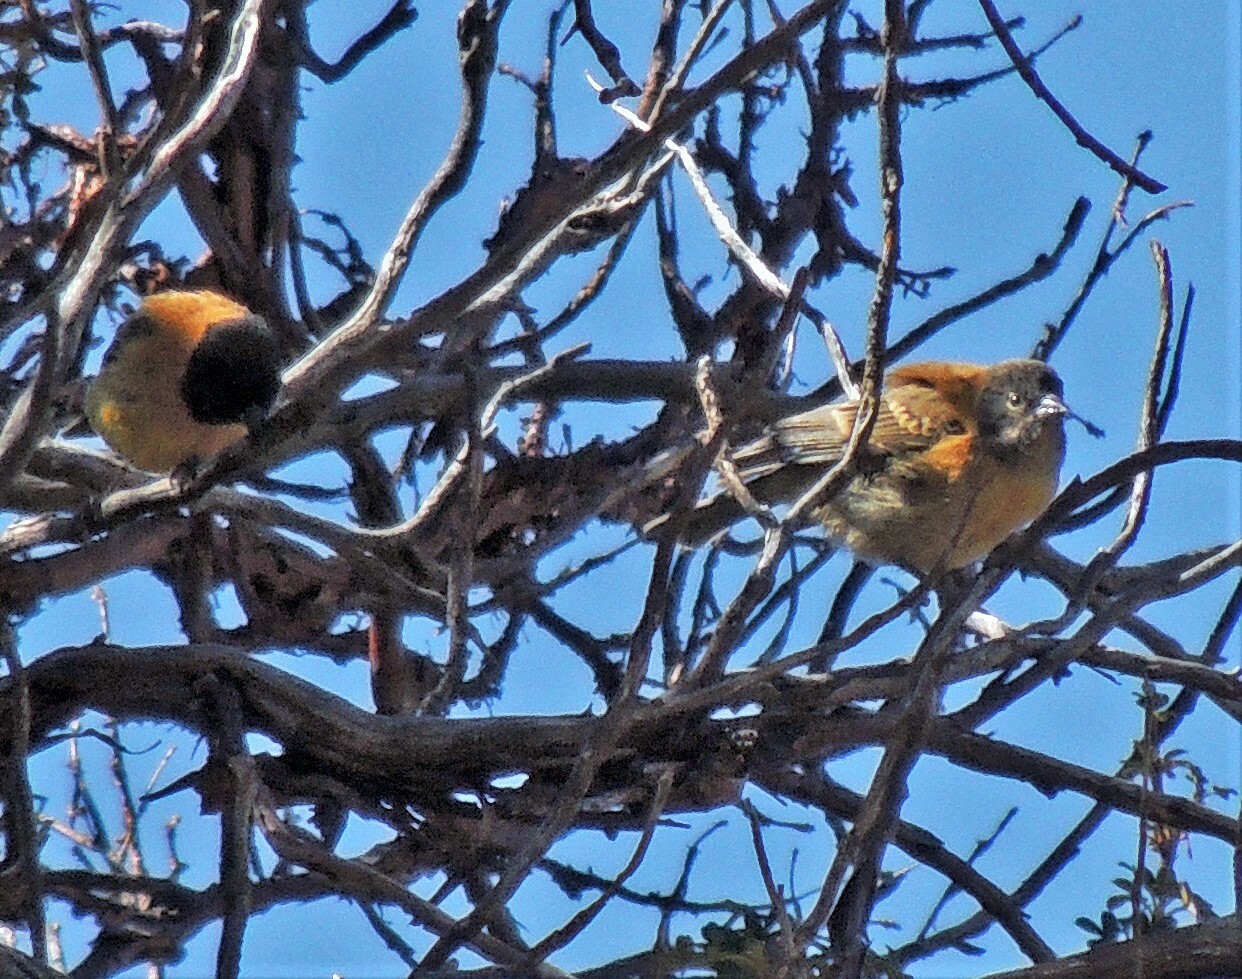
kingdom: Animalia
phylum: Chordata
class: Aves
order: Passeriformes
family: Thraupidae
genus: Phrygilus
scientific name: Phrygilus atriceps
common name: Black-hooded sierra finch
